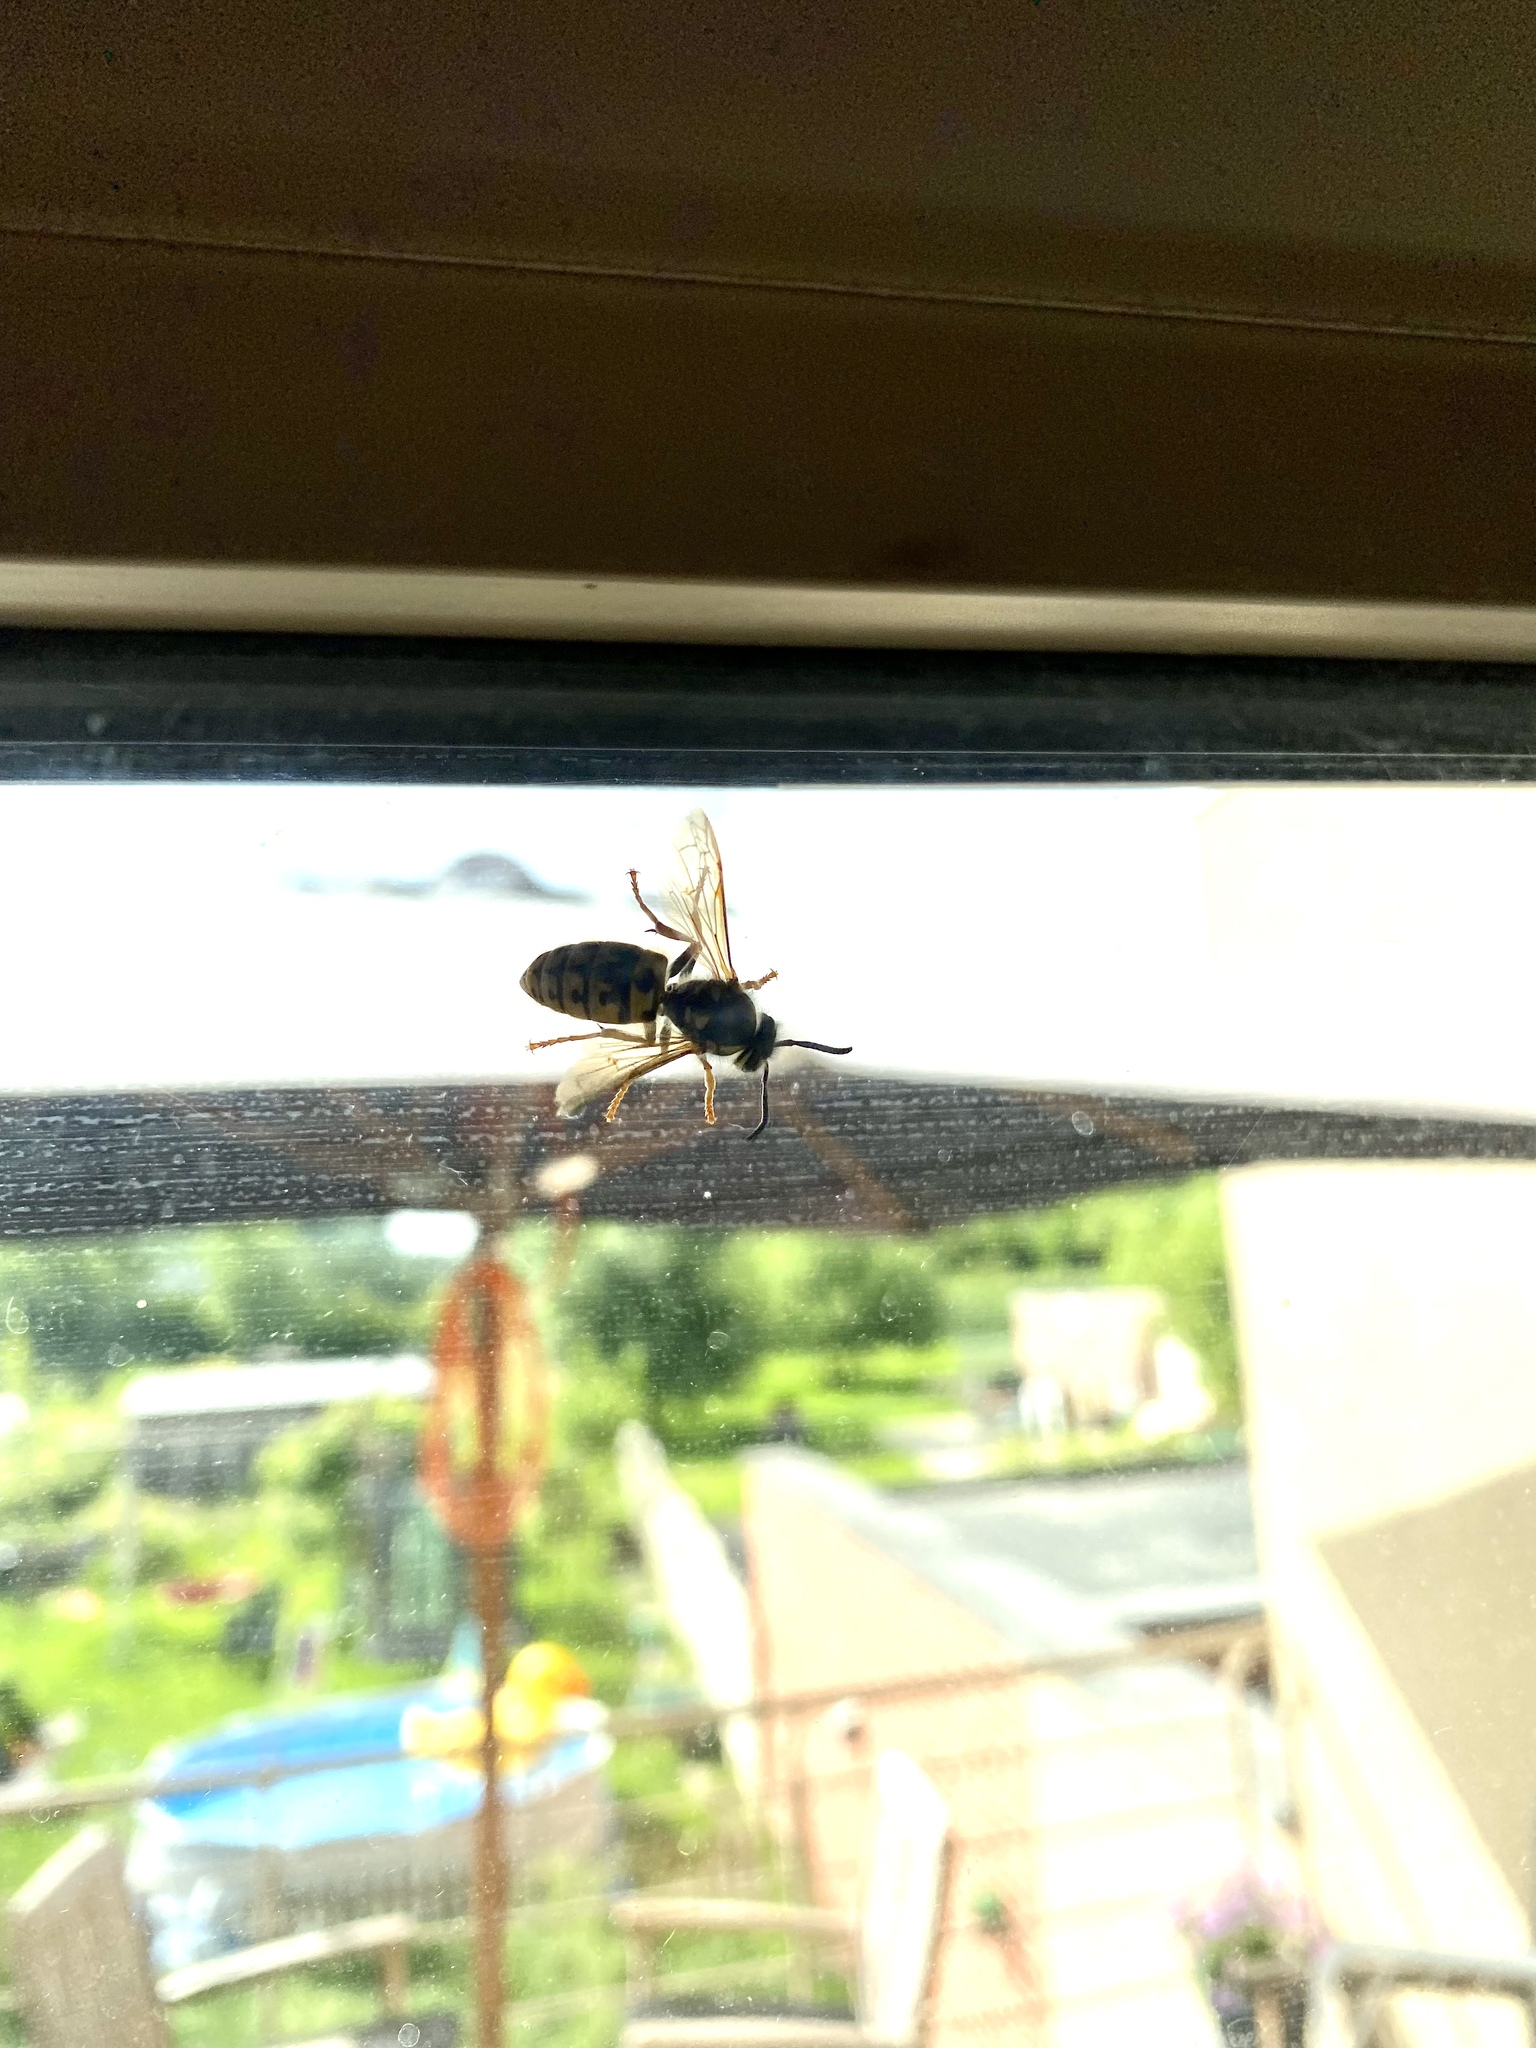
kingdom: Animalia
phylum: Arthropoda
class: Insecta
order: Hymenoptera
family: Vespidae
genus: Vespula
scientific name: Vespula germanica
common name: German wasp
